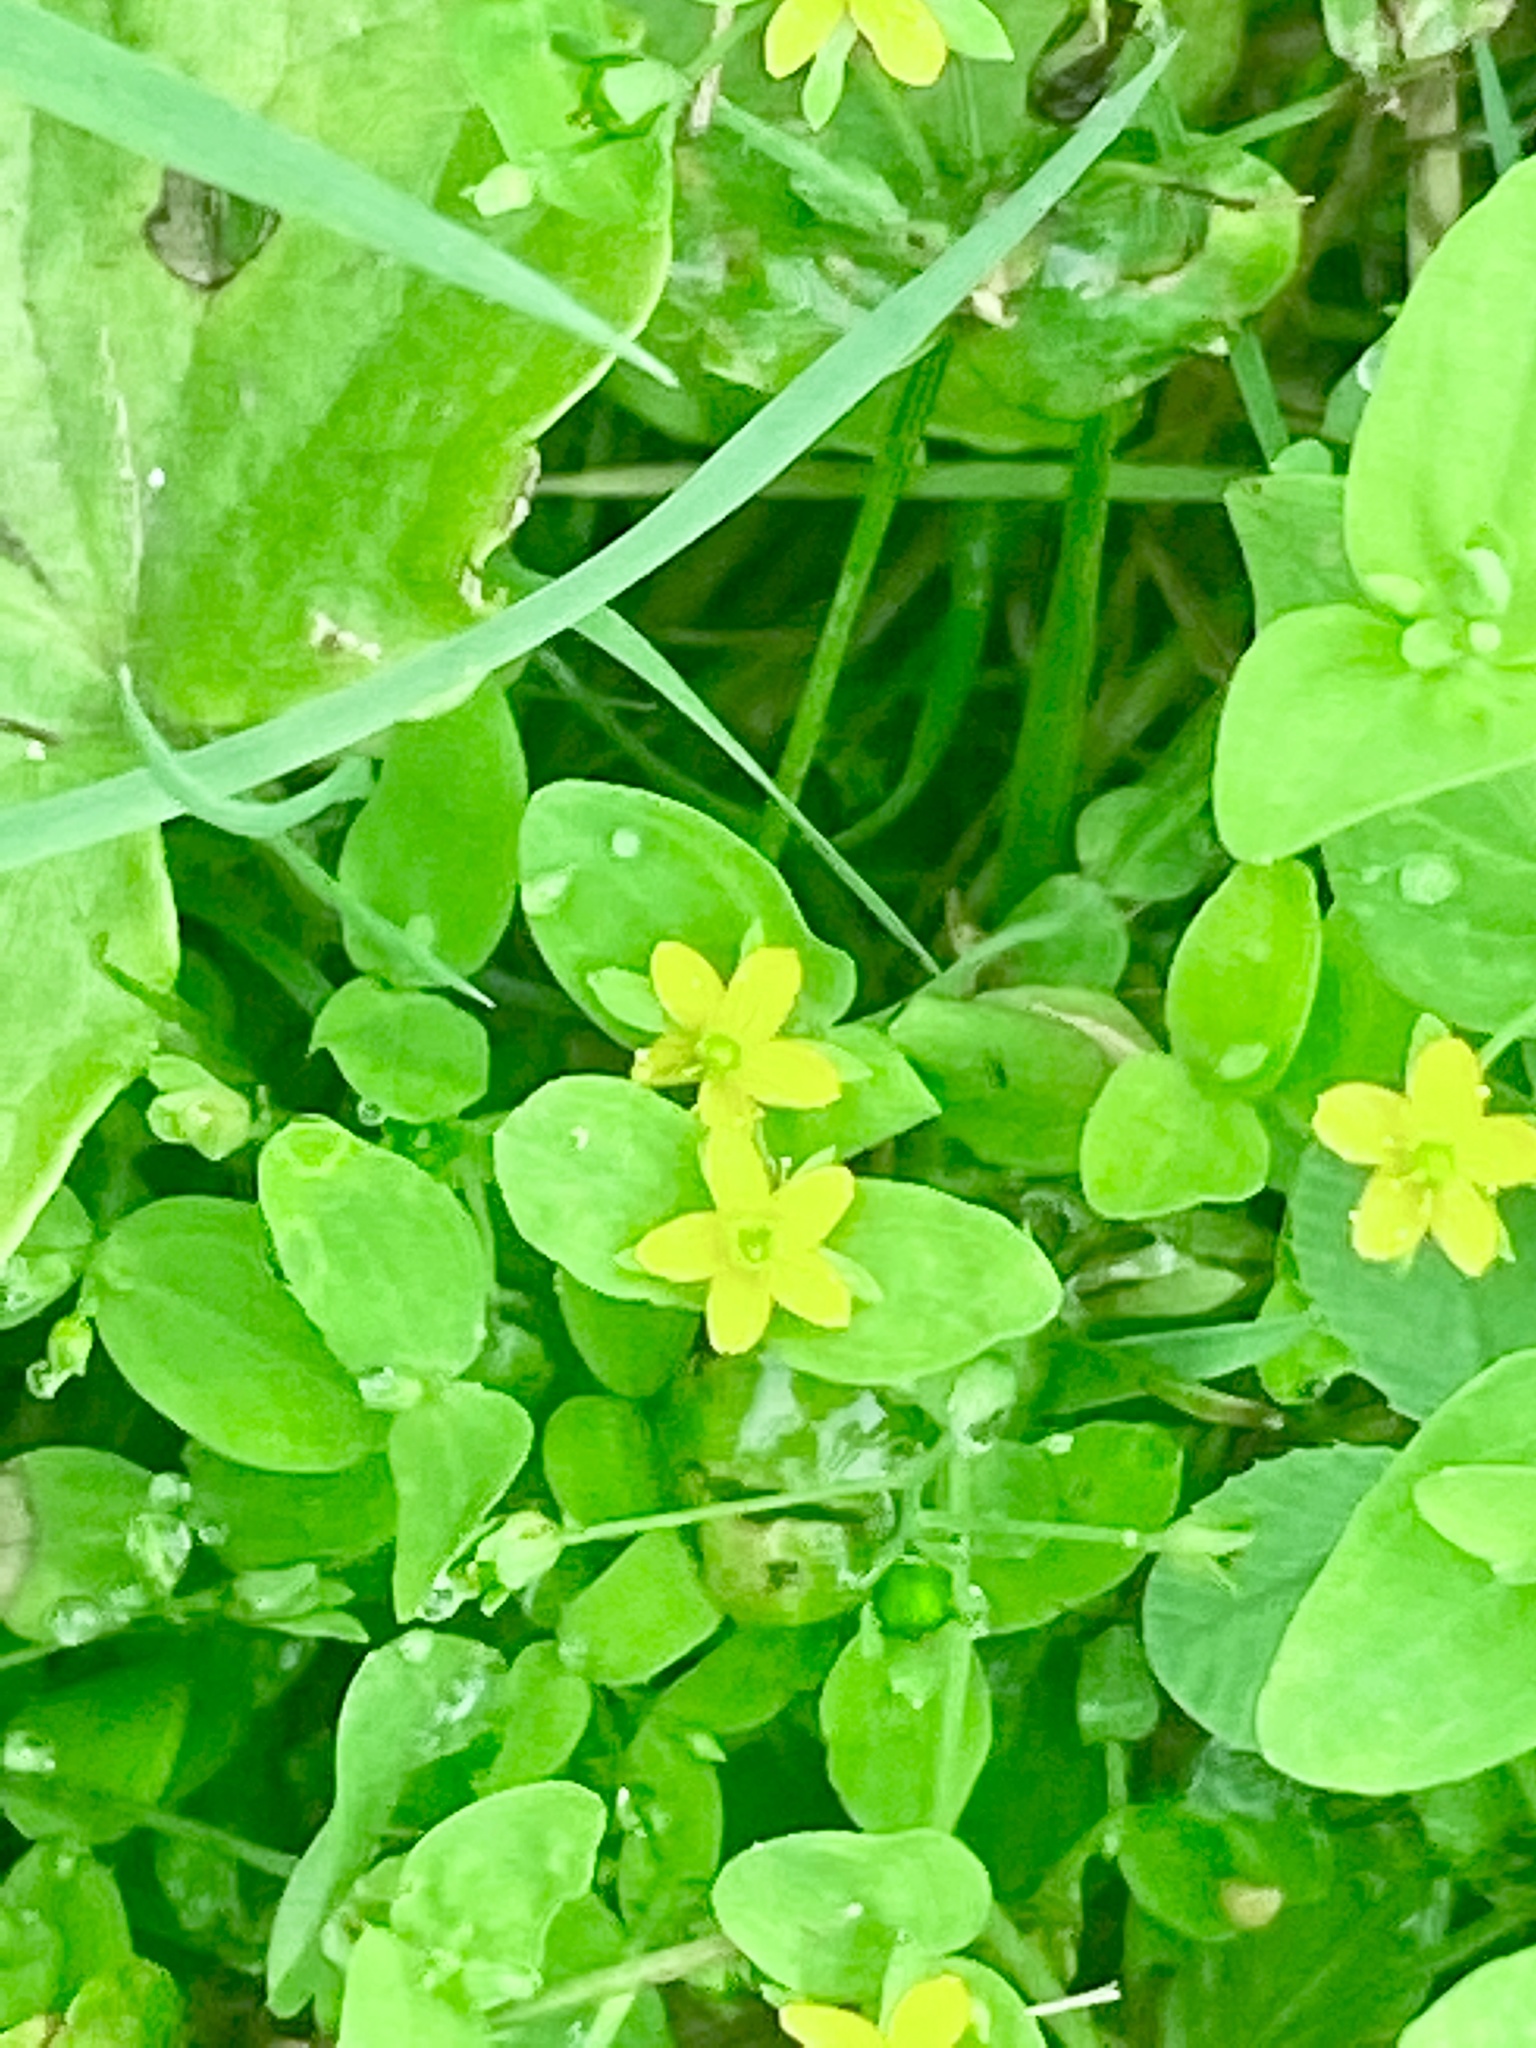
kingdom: Plantae
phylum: Tracheophyta
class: Magnoliopsida
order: Malpighiales
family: Hypericaceae
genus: Hypericum
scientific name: Hypericum mutilum
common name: Dwarf st. john's-wort
